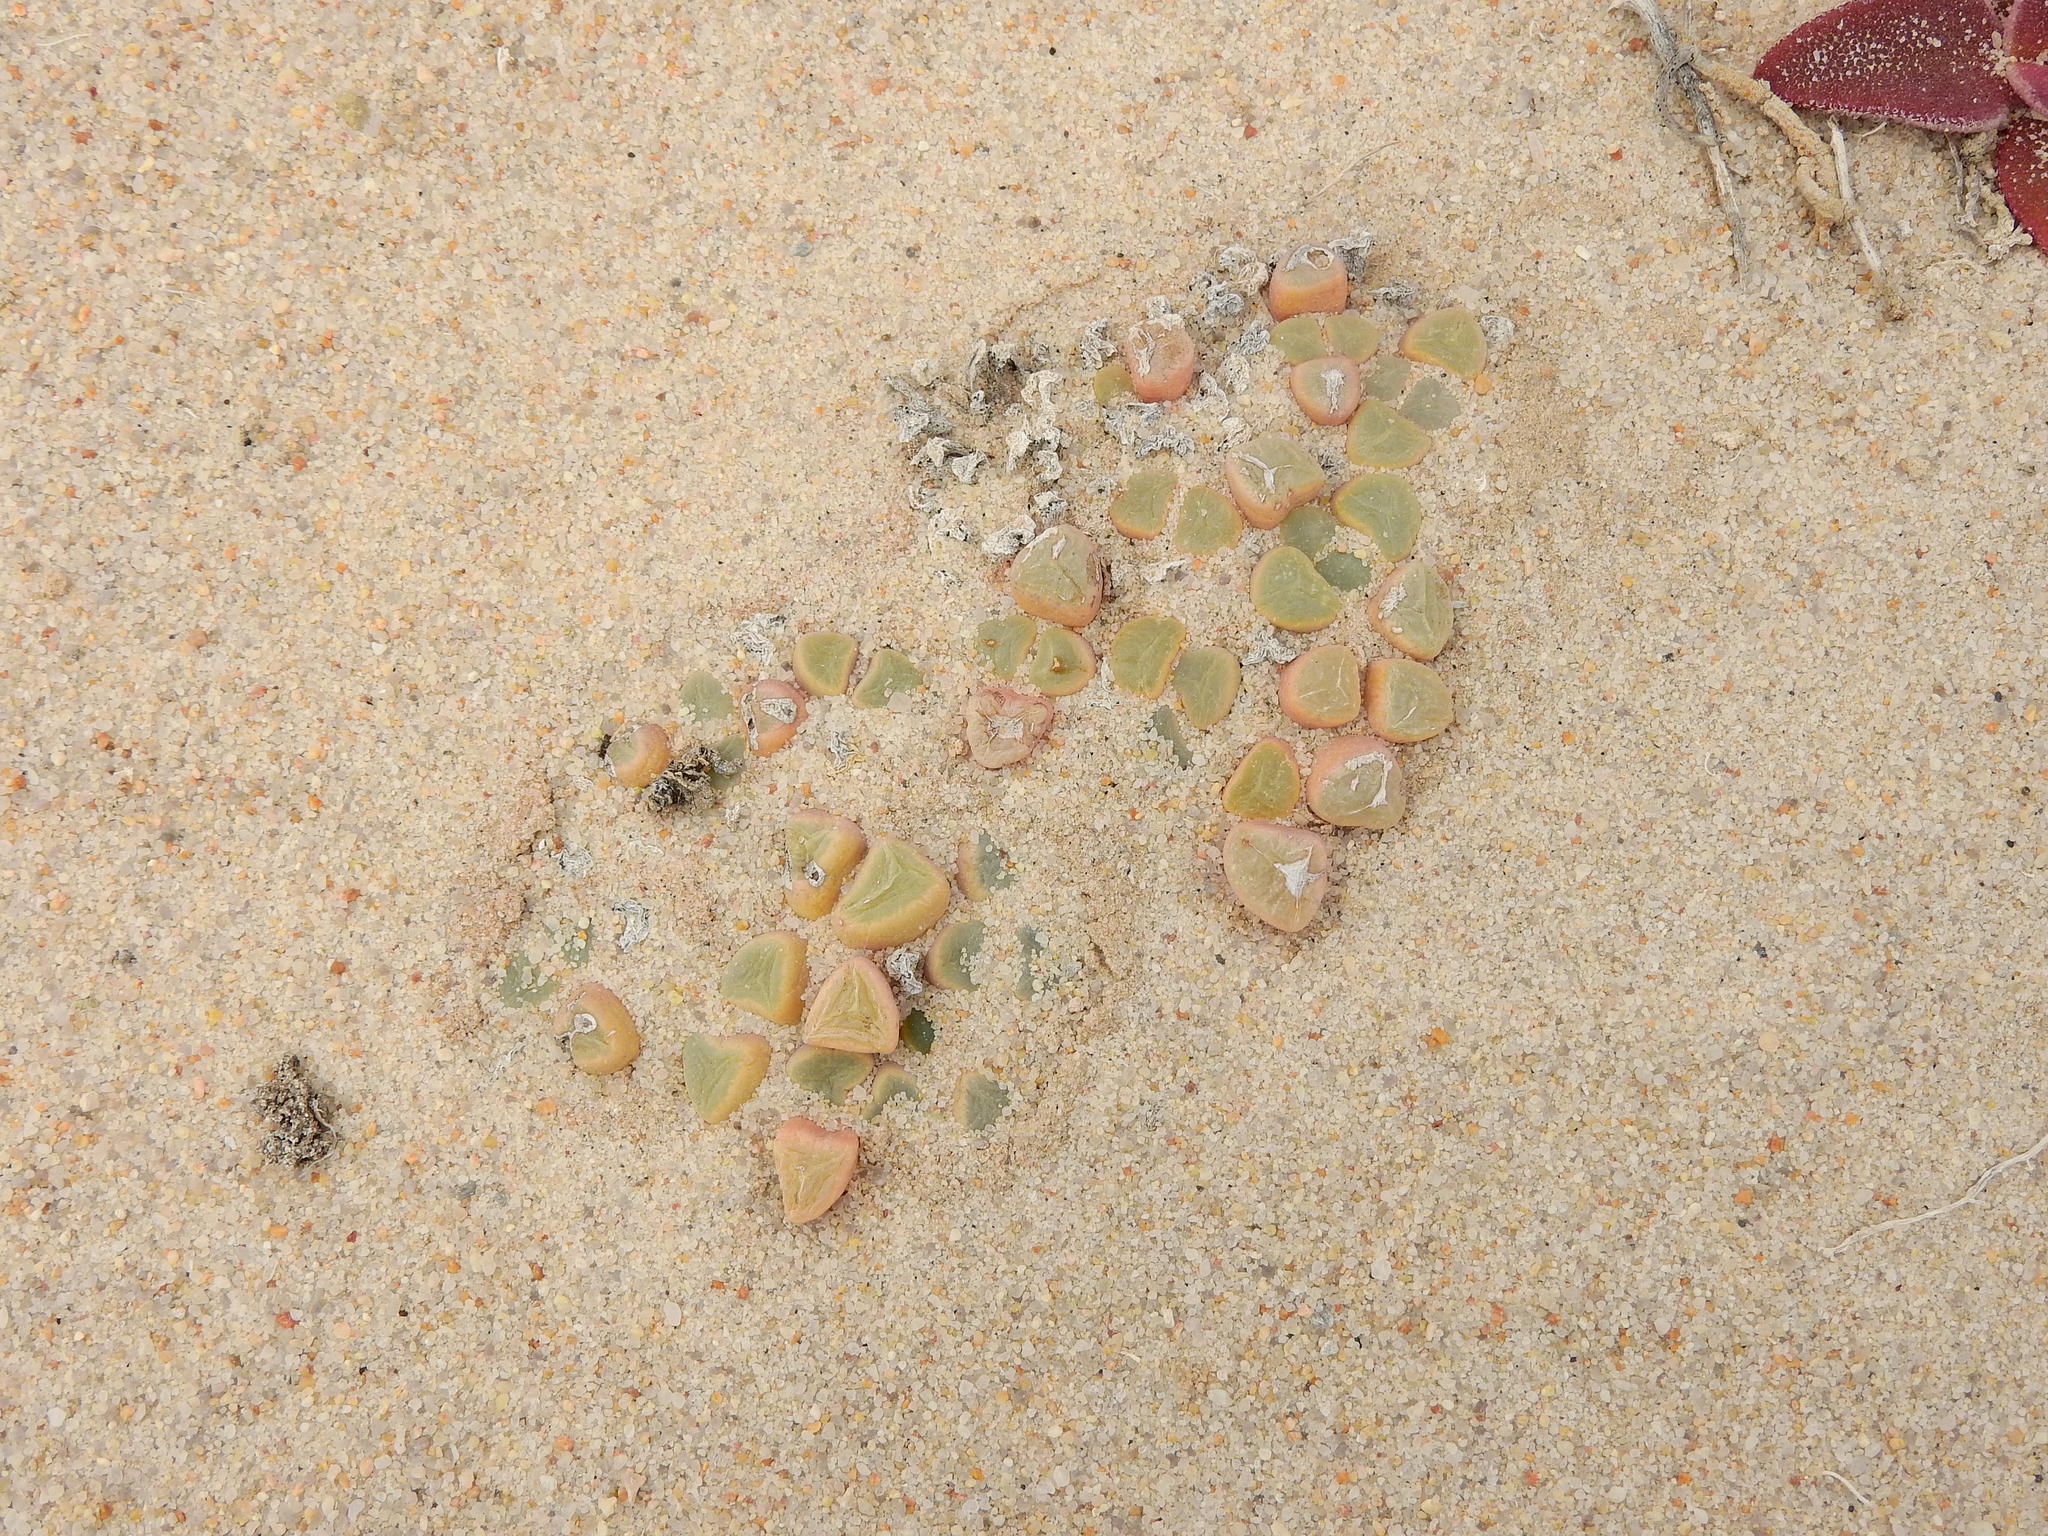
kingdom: Plantae
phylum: Tracheophyta
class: Magnoliopsida
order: Caryophyllales
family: Aizoaceae
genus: Fenestraria
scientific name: Fenestraria rhopalophylla
